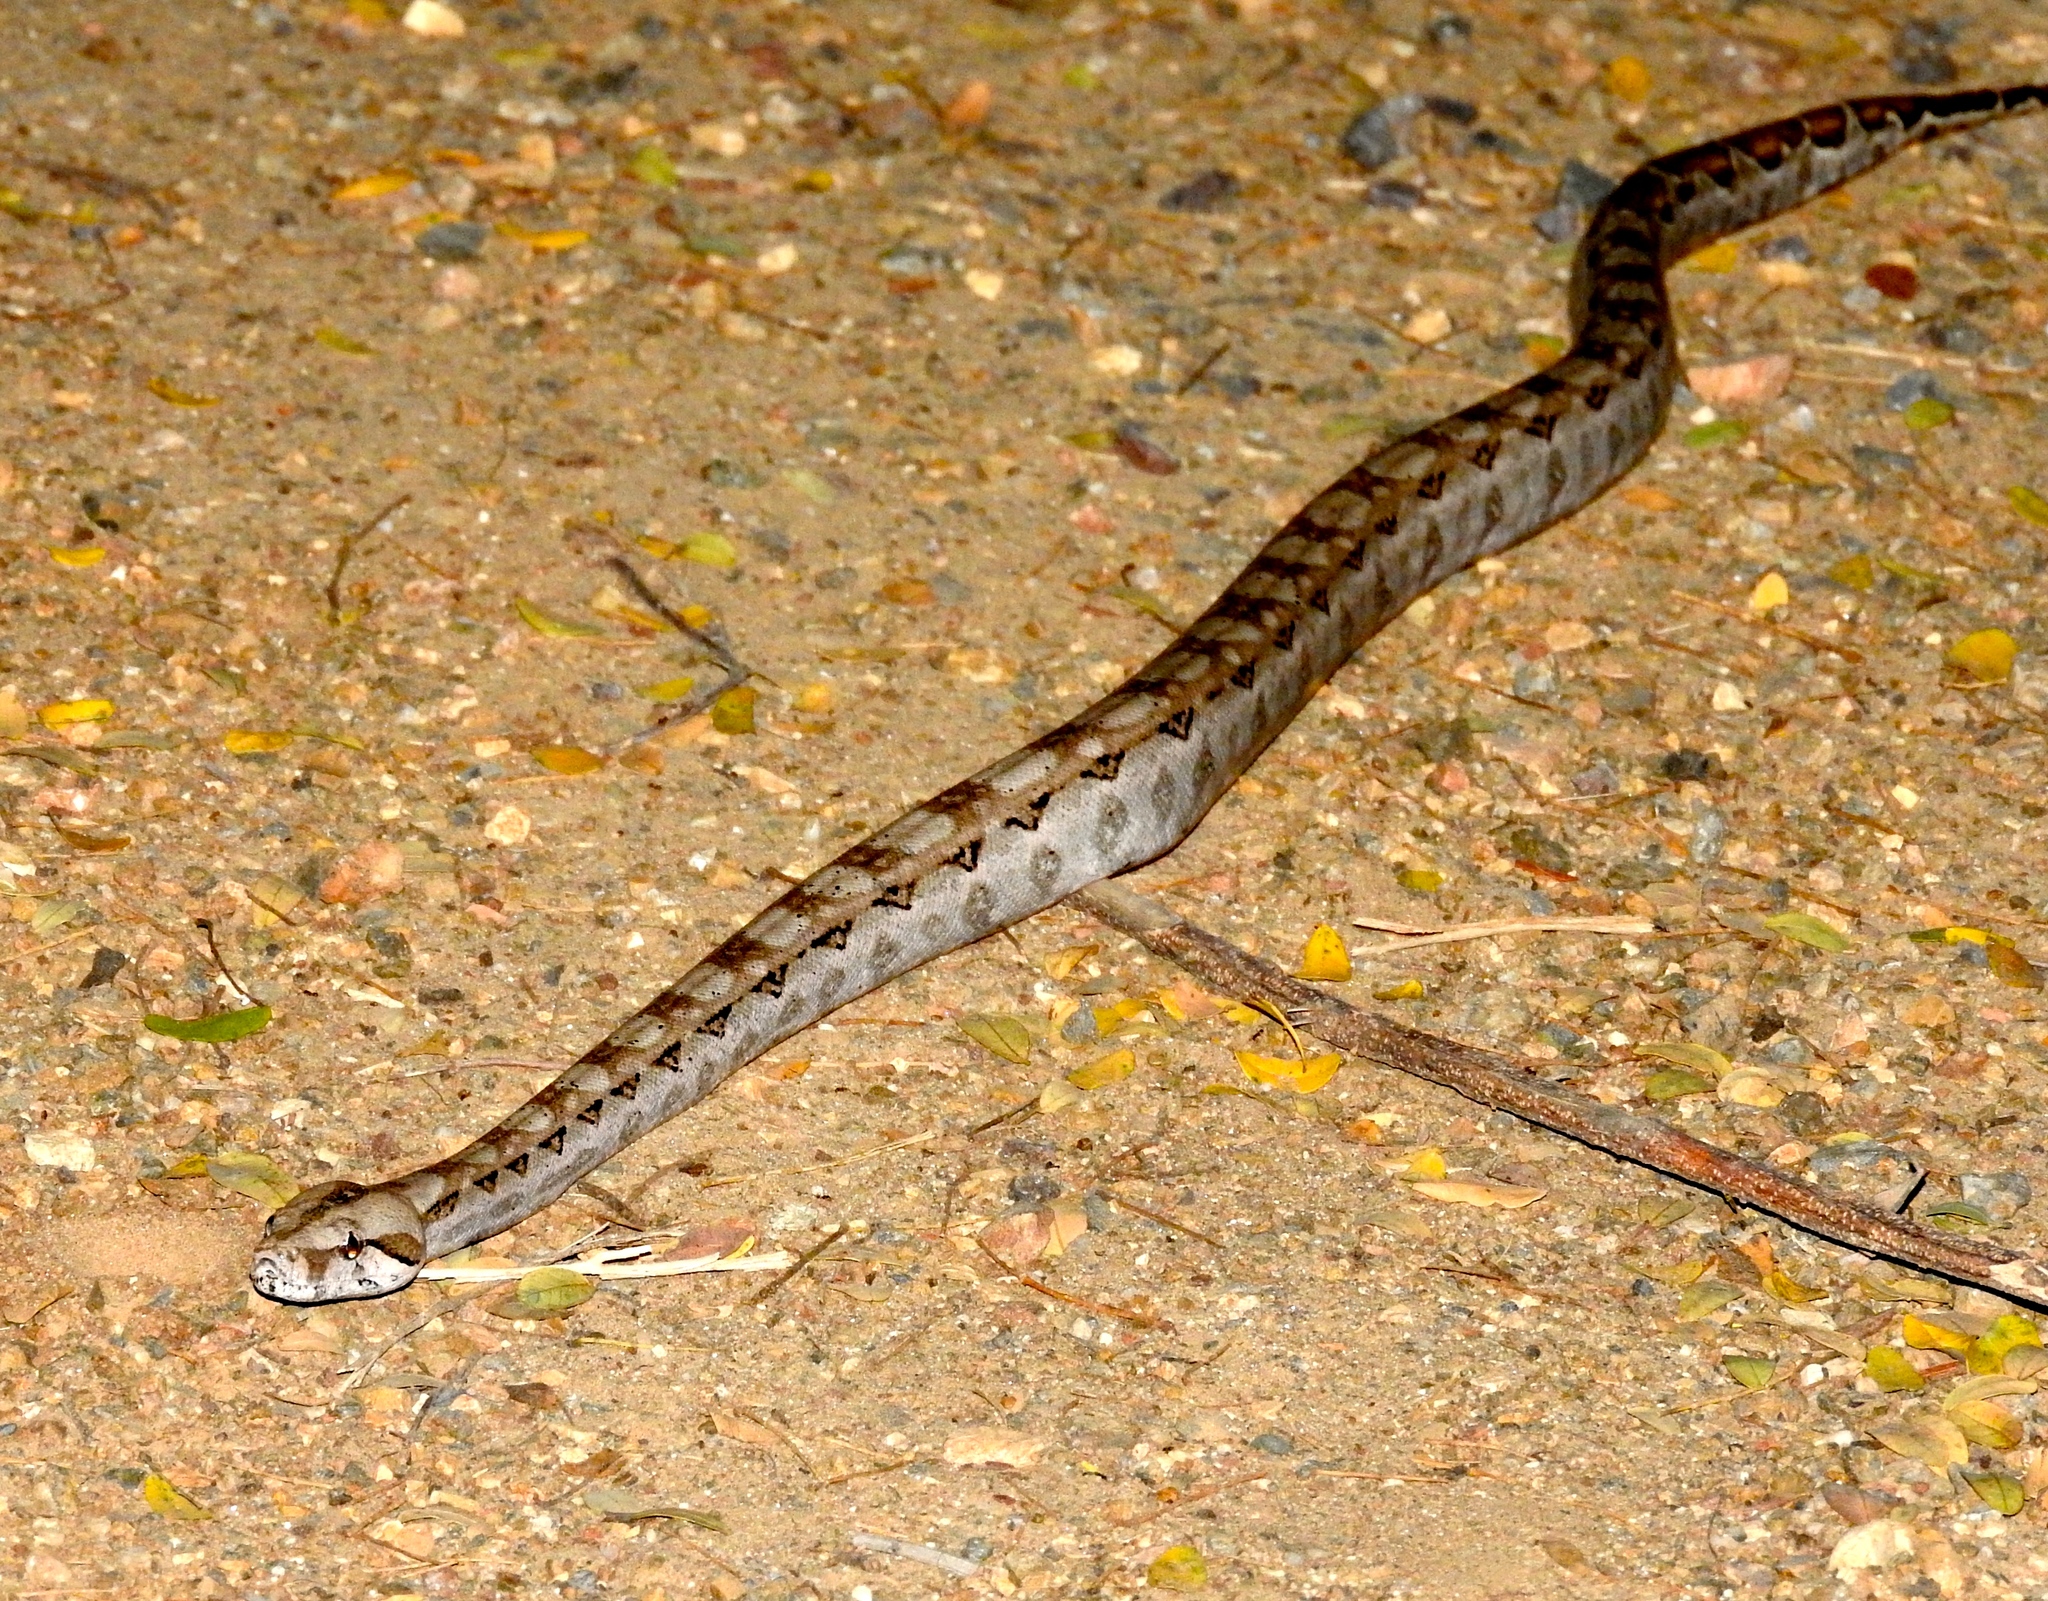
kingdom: Animalia
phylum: Chordata
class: Squamata
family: Boidae
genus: Boa
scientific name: Boa
